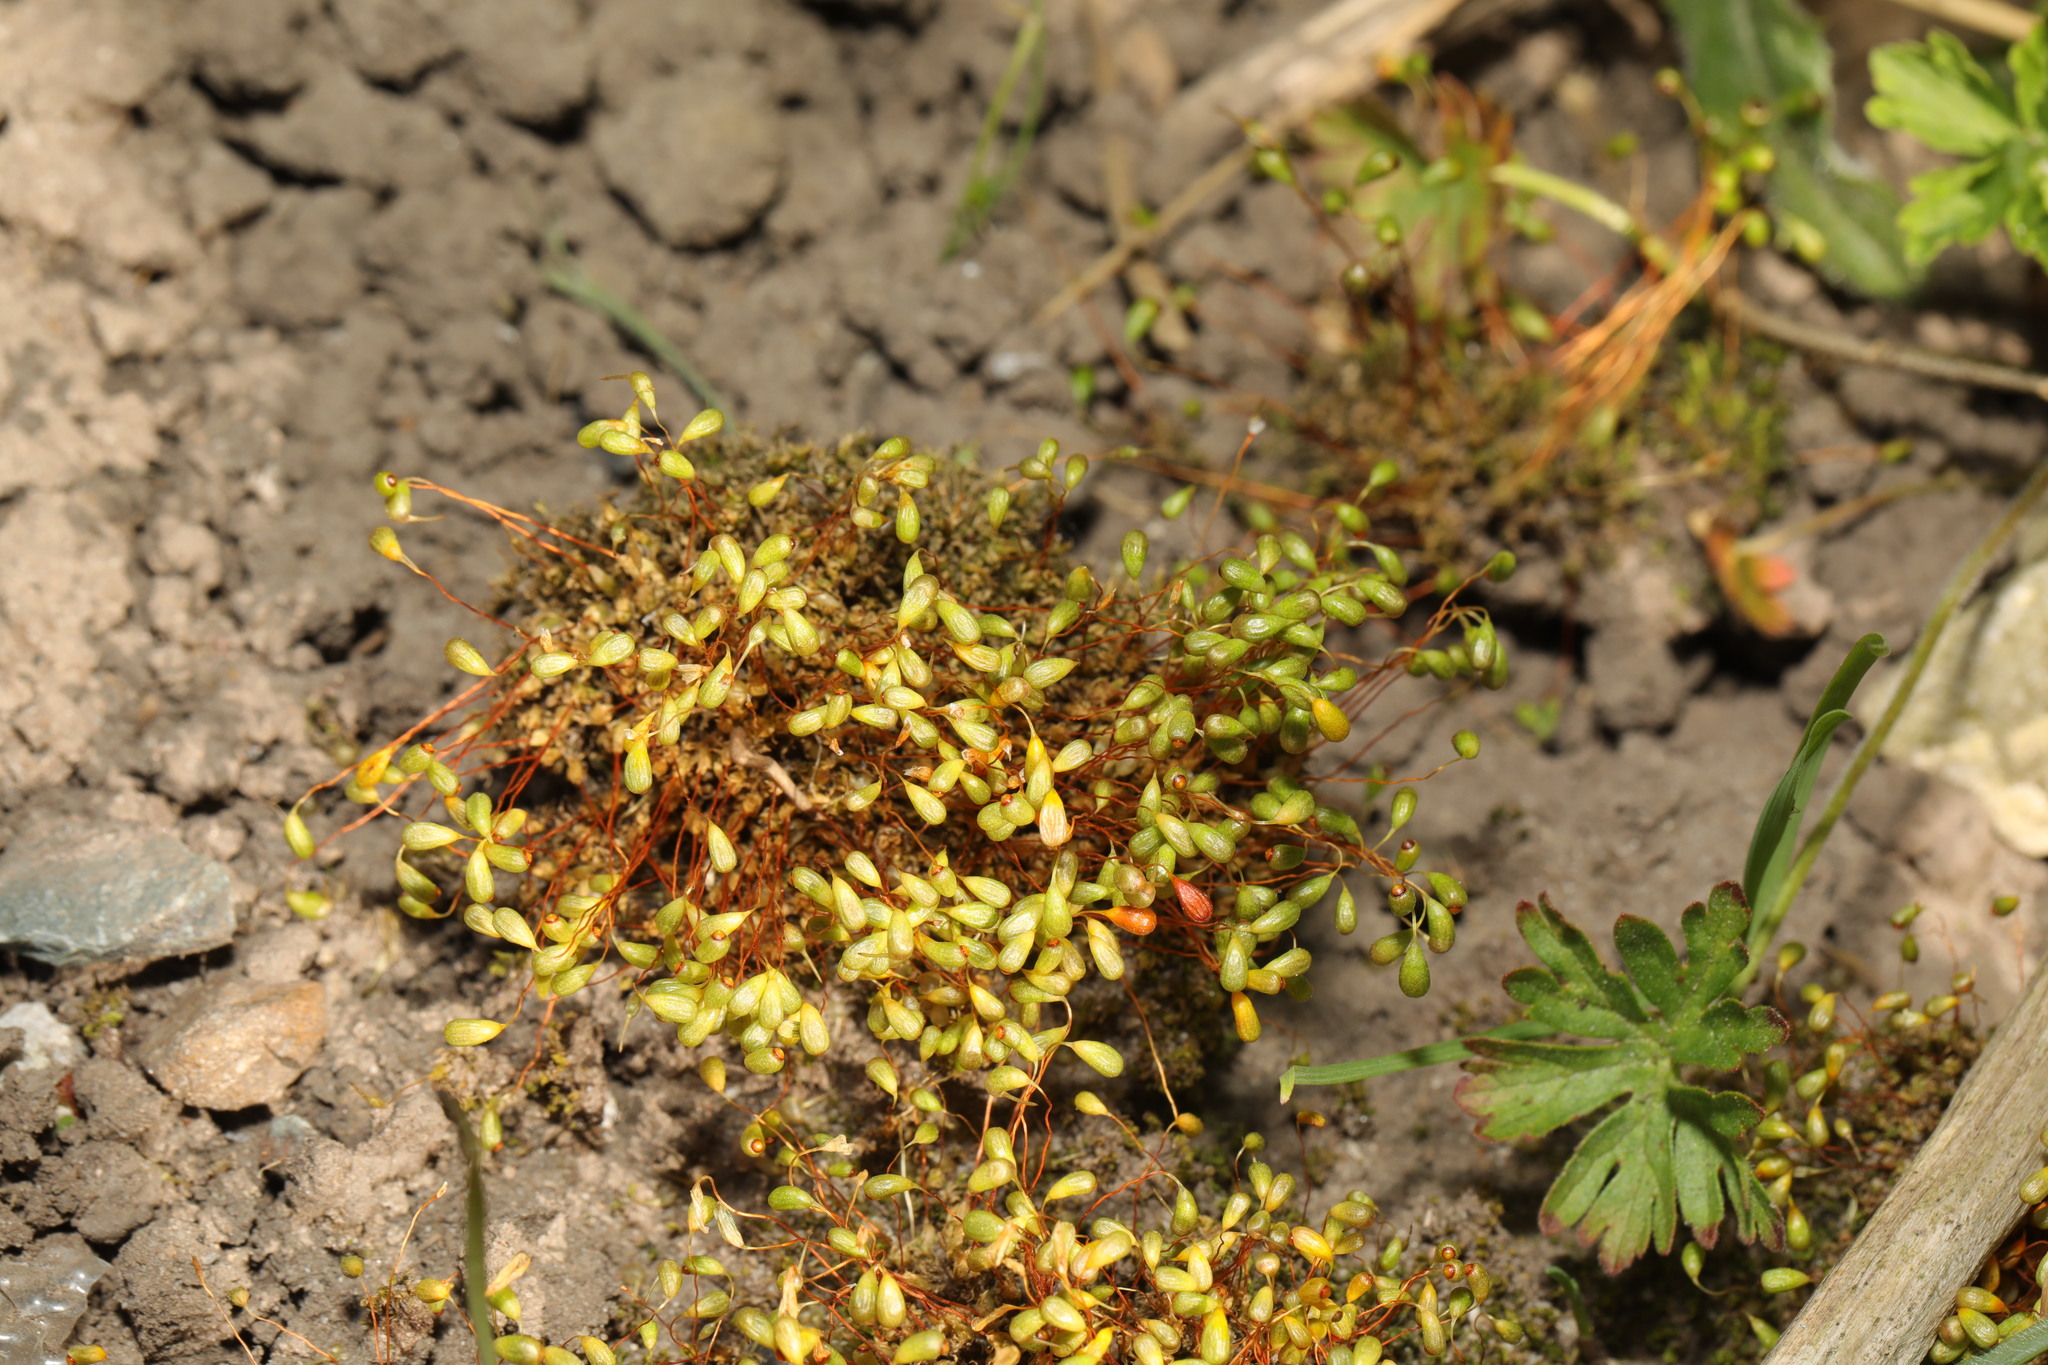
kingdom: Plantae
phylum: Bryophyta
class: Bryopsida
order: Funariales
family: Funariaceae
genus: Funaria
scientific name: Funaria hygrometrica
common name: Common cord moss
